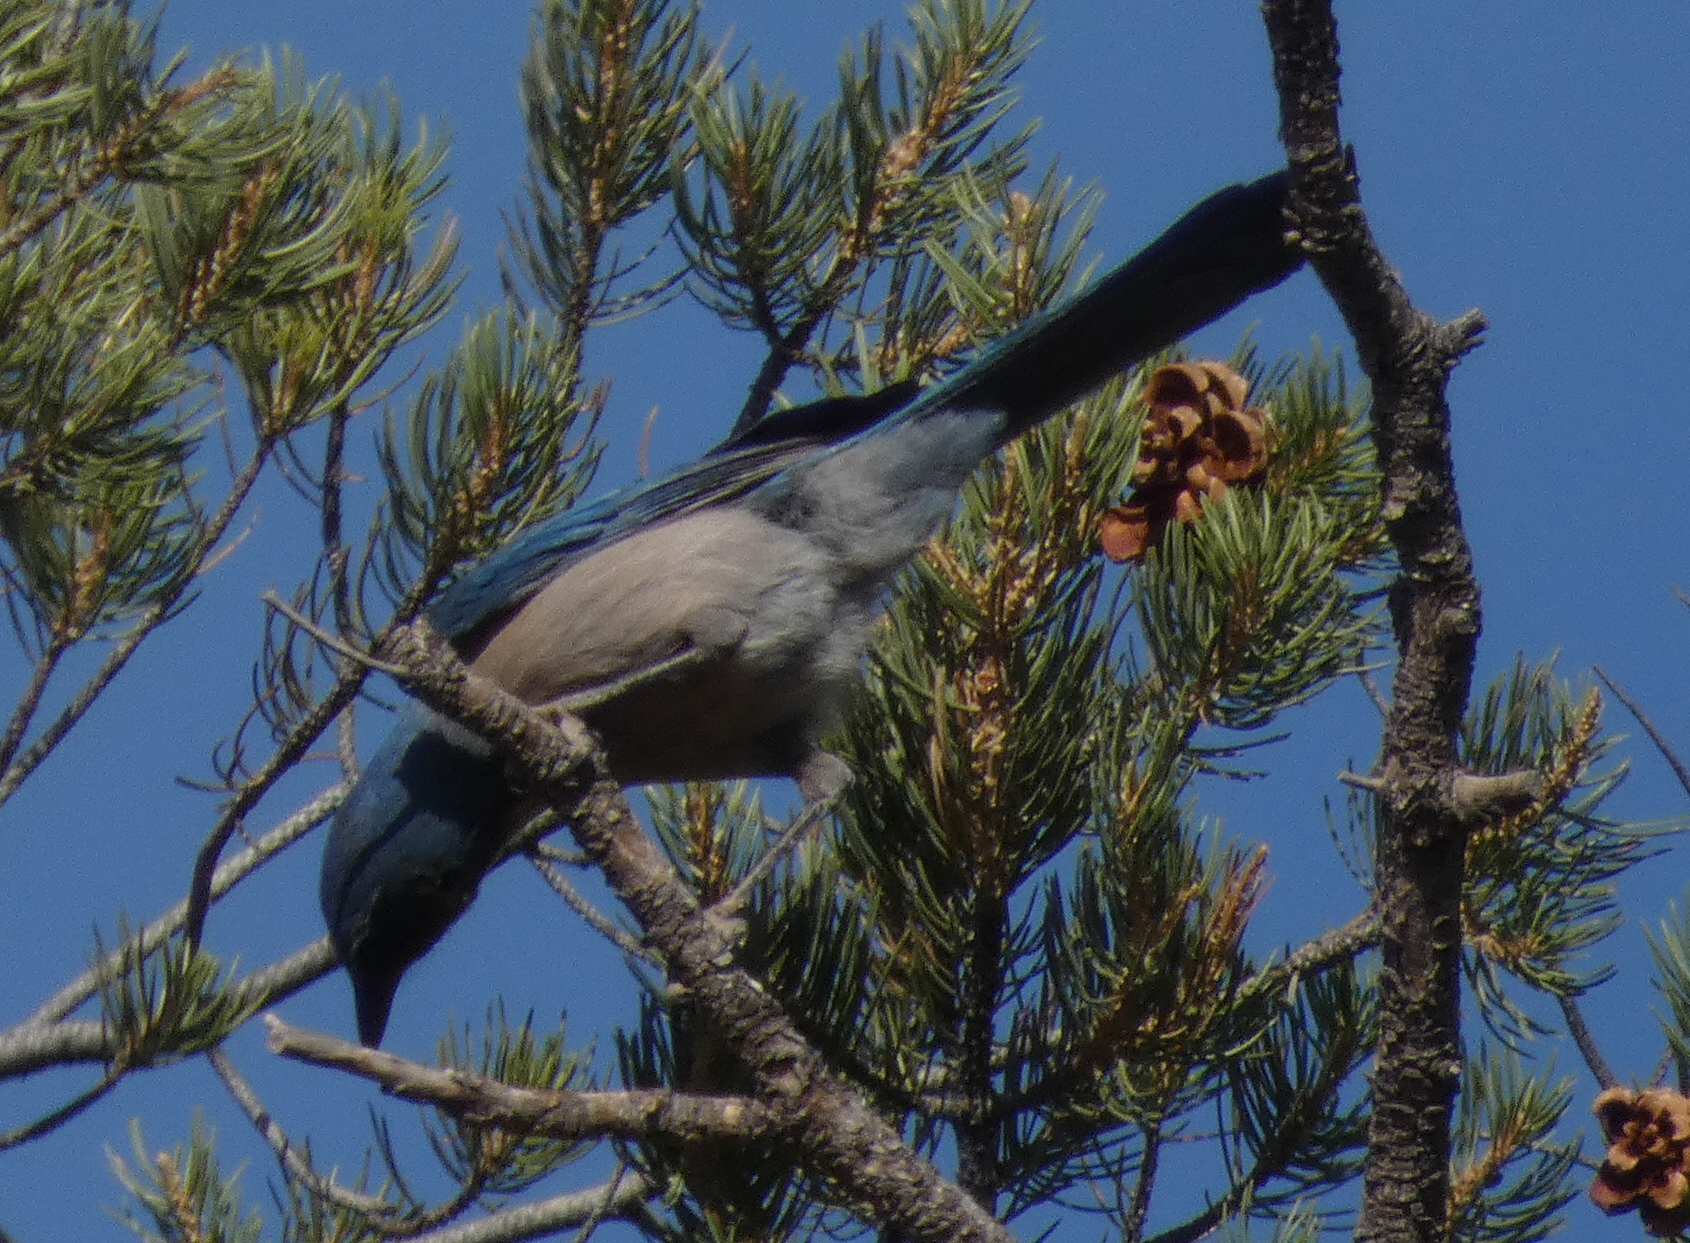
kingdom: Animalia
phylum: Chordata
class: Aves
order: Passeriformes
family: Corvidae
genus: Aphelocoma
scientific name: Aphelocoma woodhouseii
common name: Woodhouse's scrub-jay
